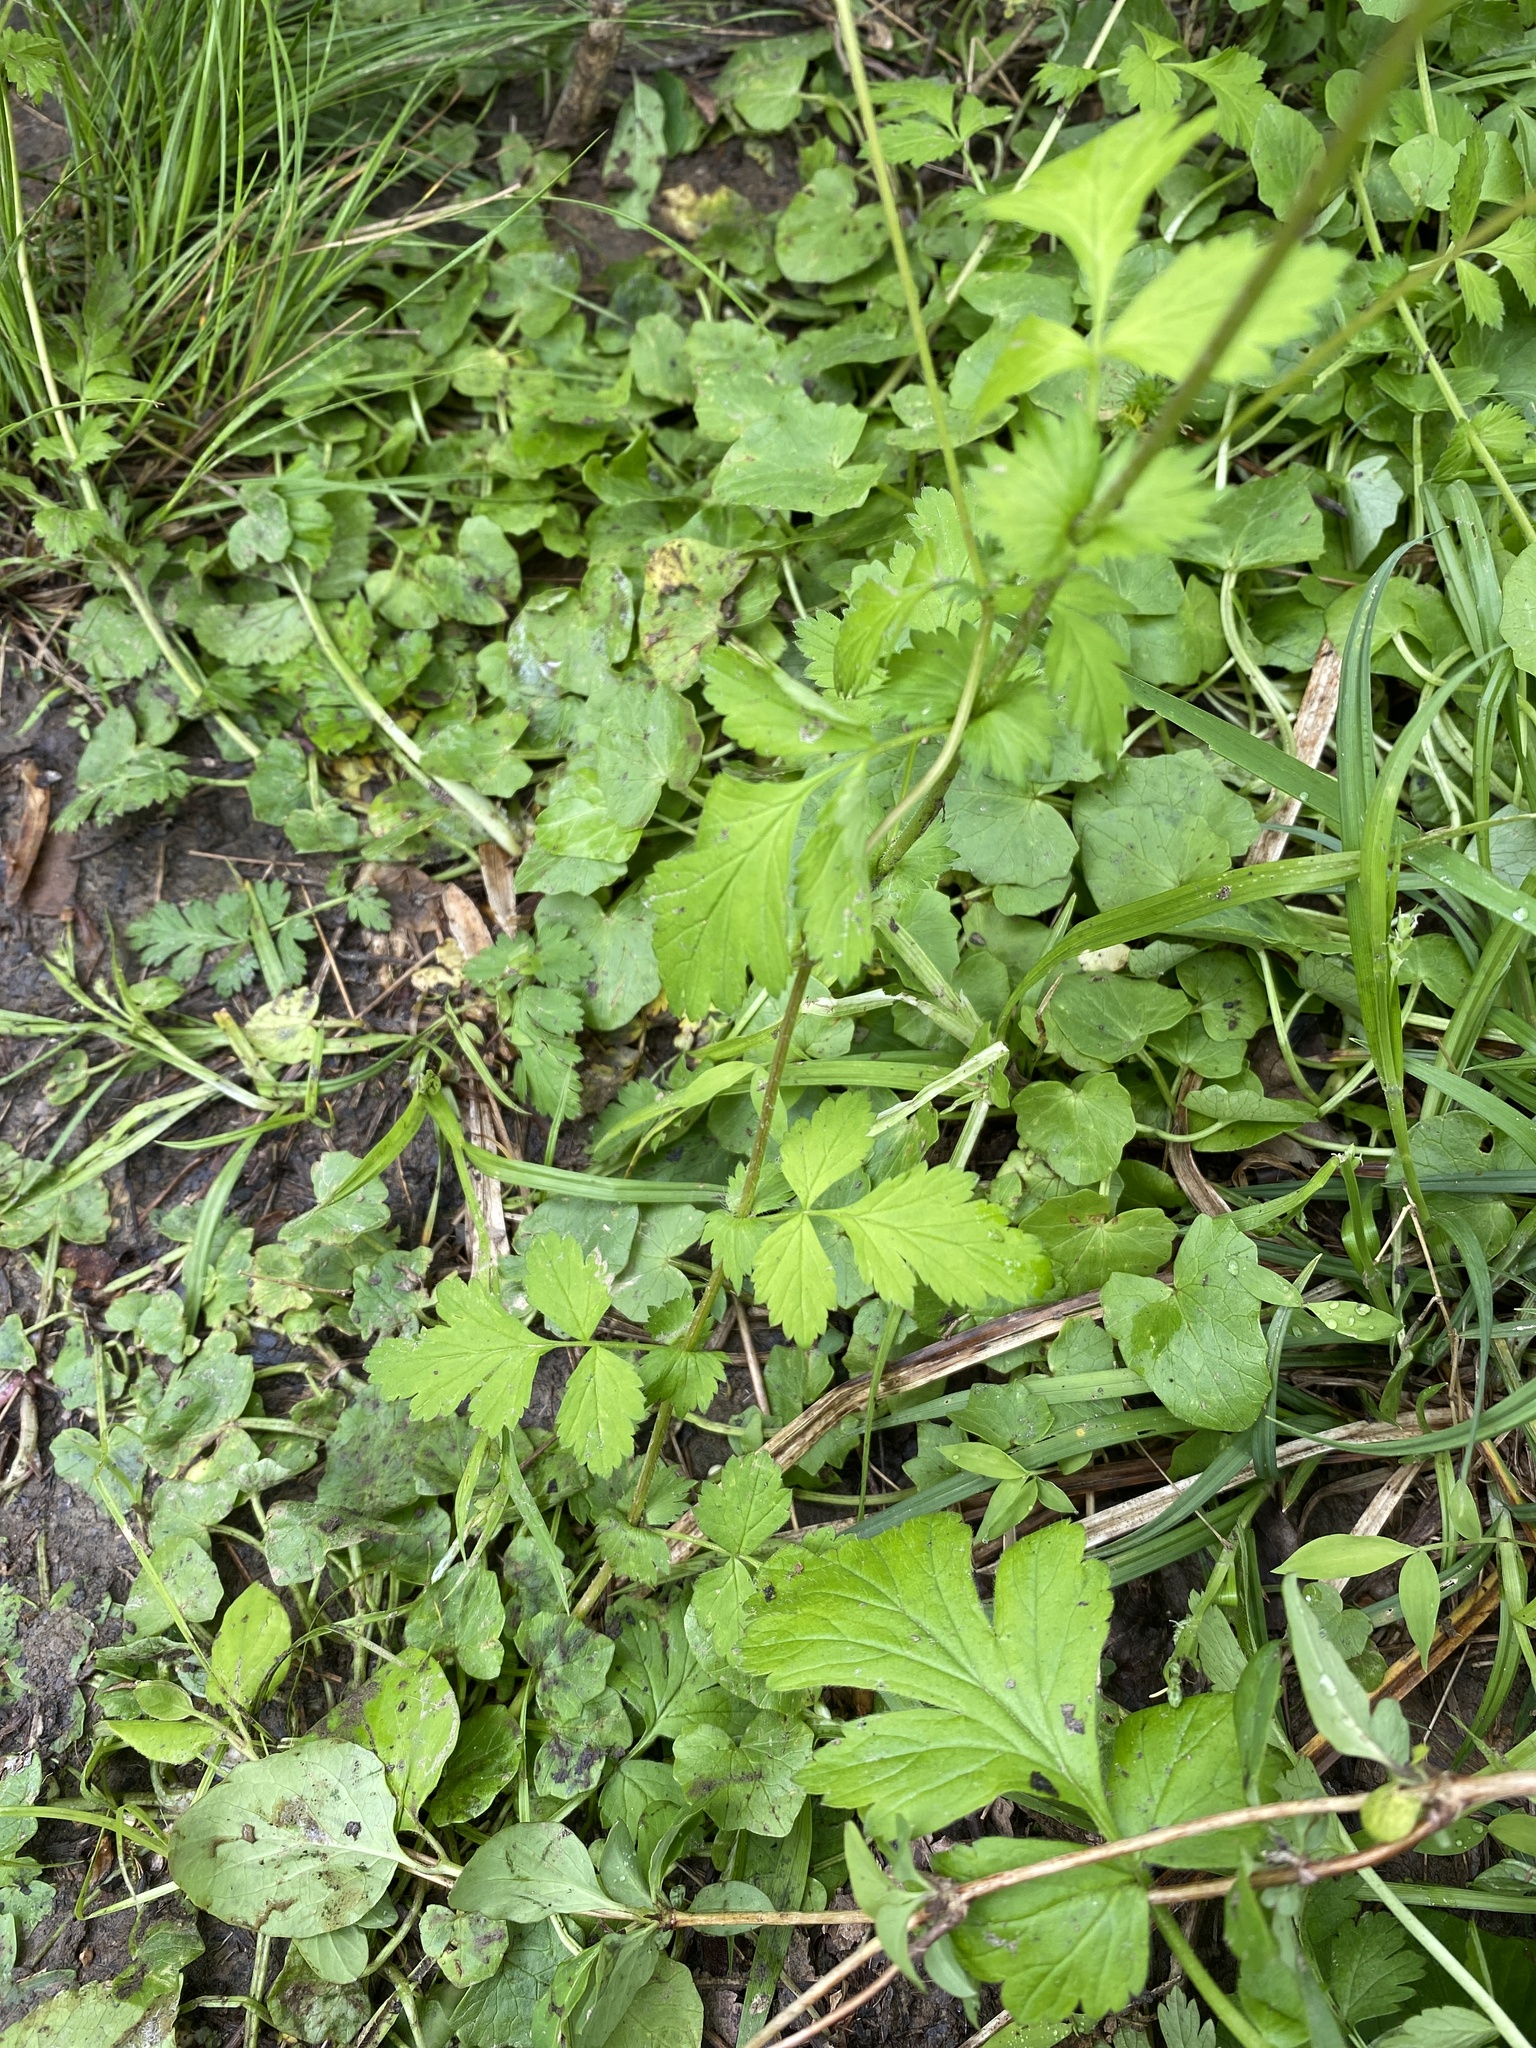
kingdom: Plantae
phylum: Tracheophyta
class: Magnoliopsida
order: Rosales
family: Rosaceae
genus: Geum
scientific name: Geum vernum
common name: Spring avens
